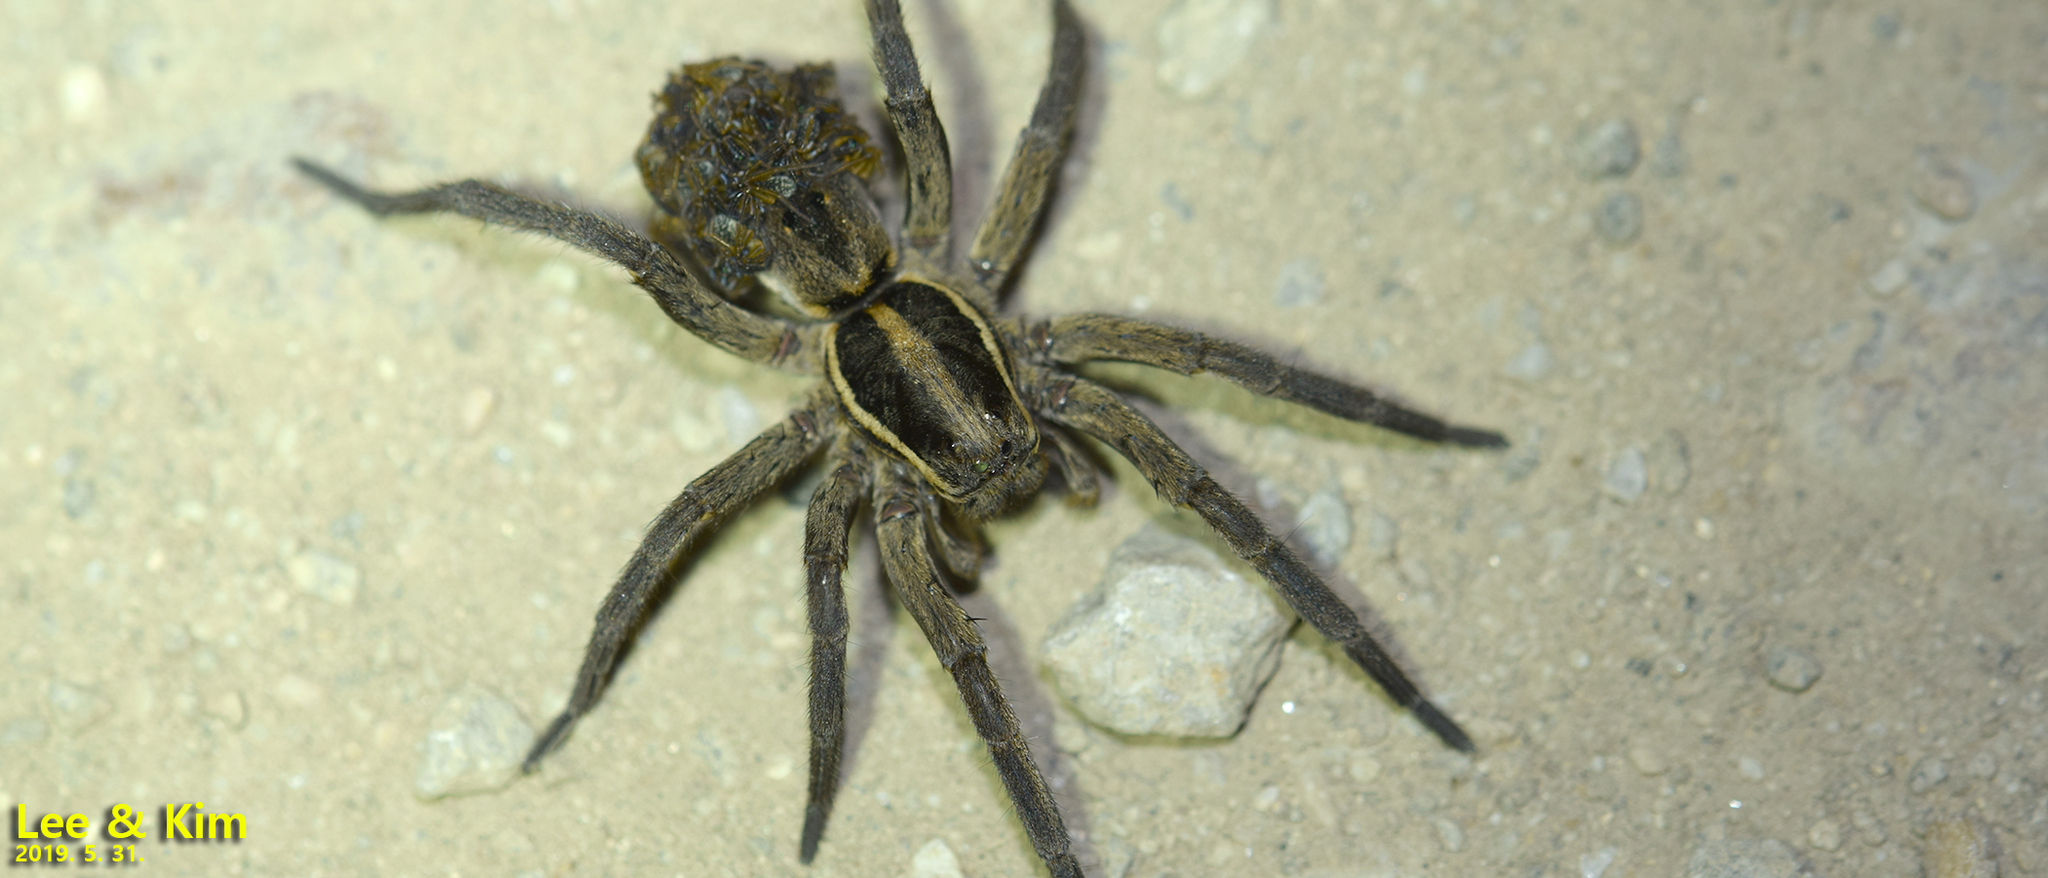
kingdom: Animalia
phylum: Arthropoda
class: Arachnida
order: Araneae
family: Lycosidae
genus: Lycosa
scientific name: Lycosa suzukii
